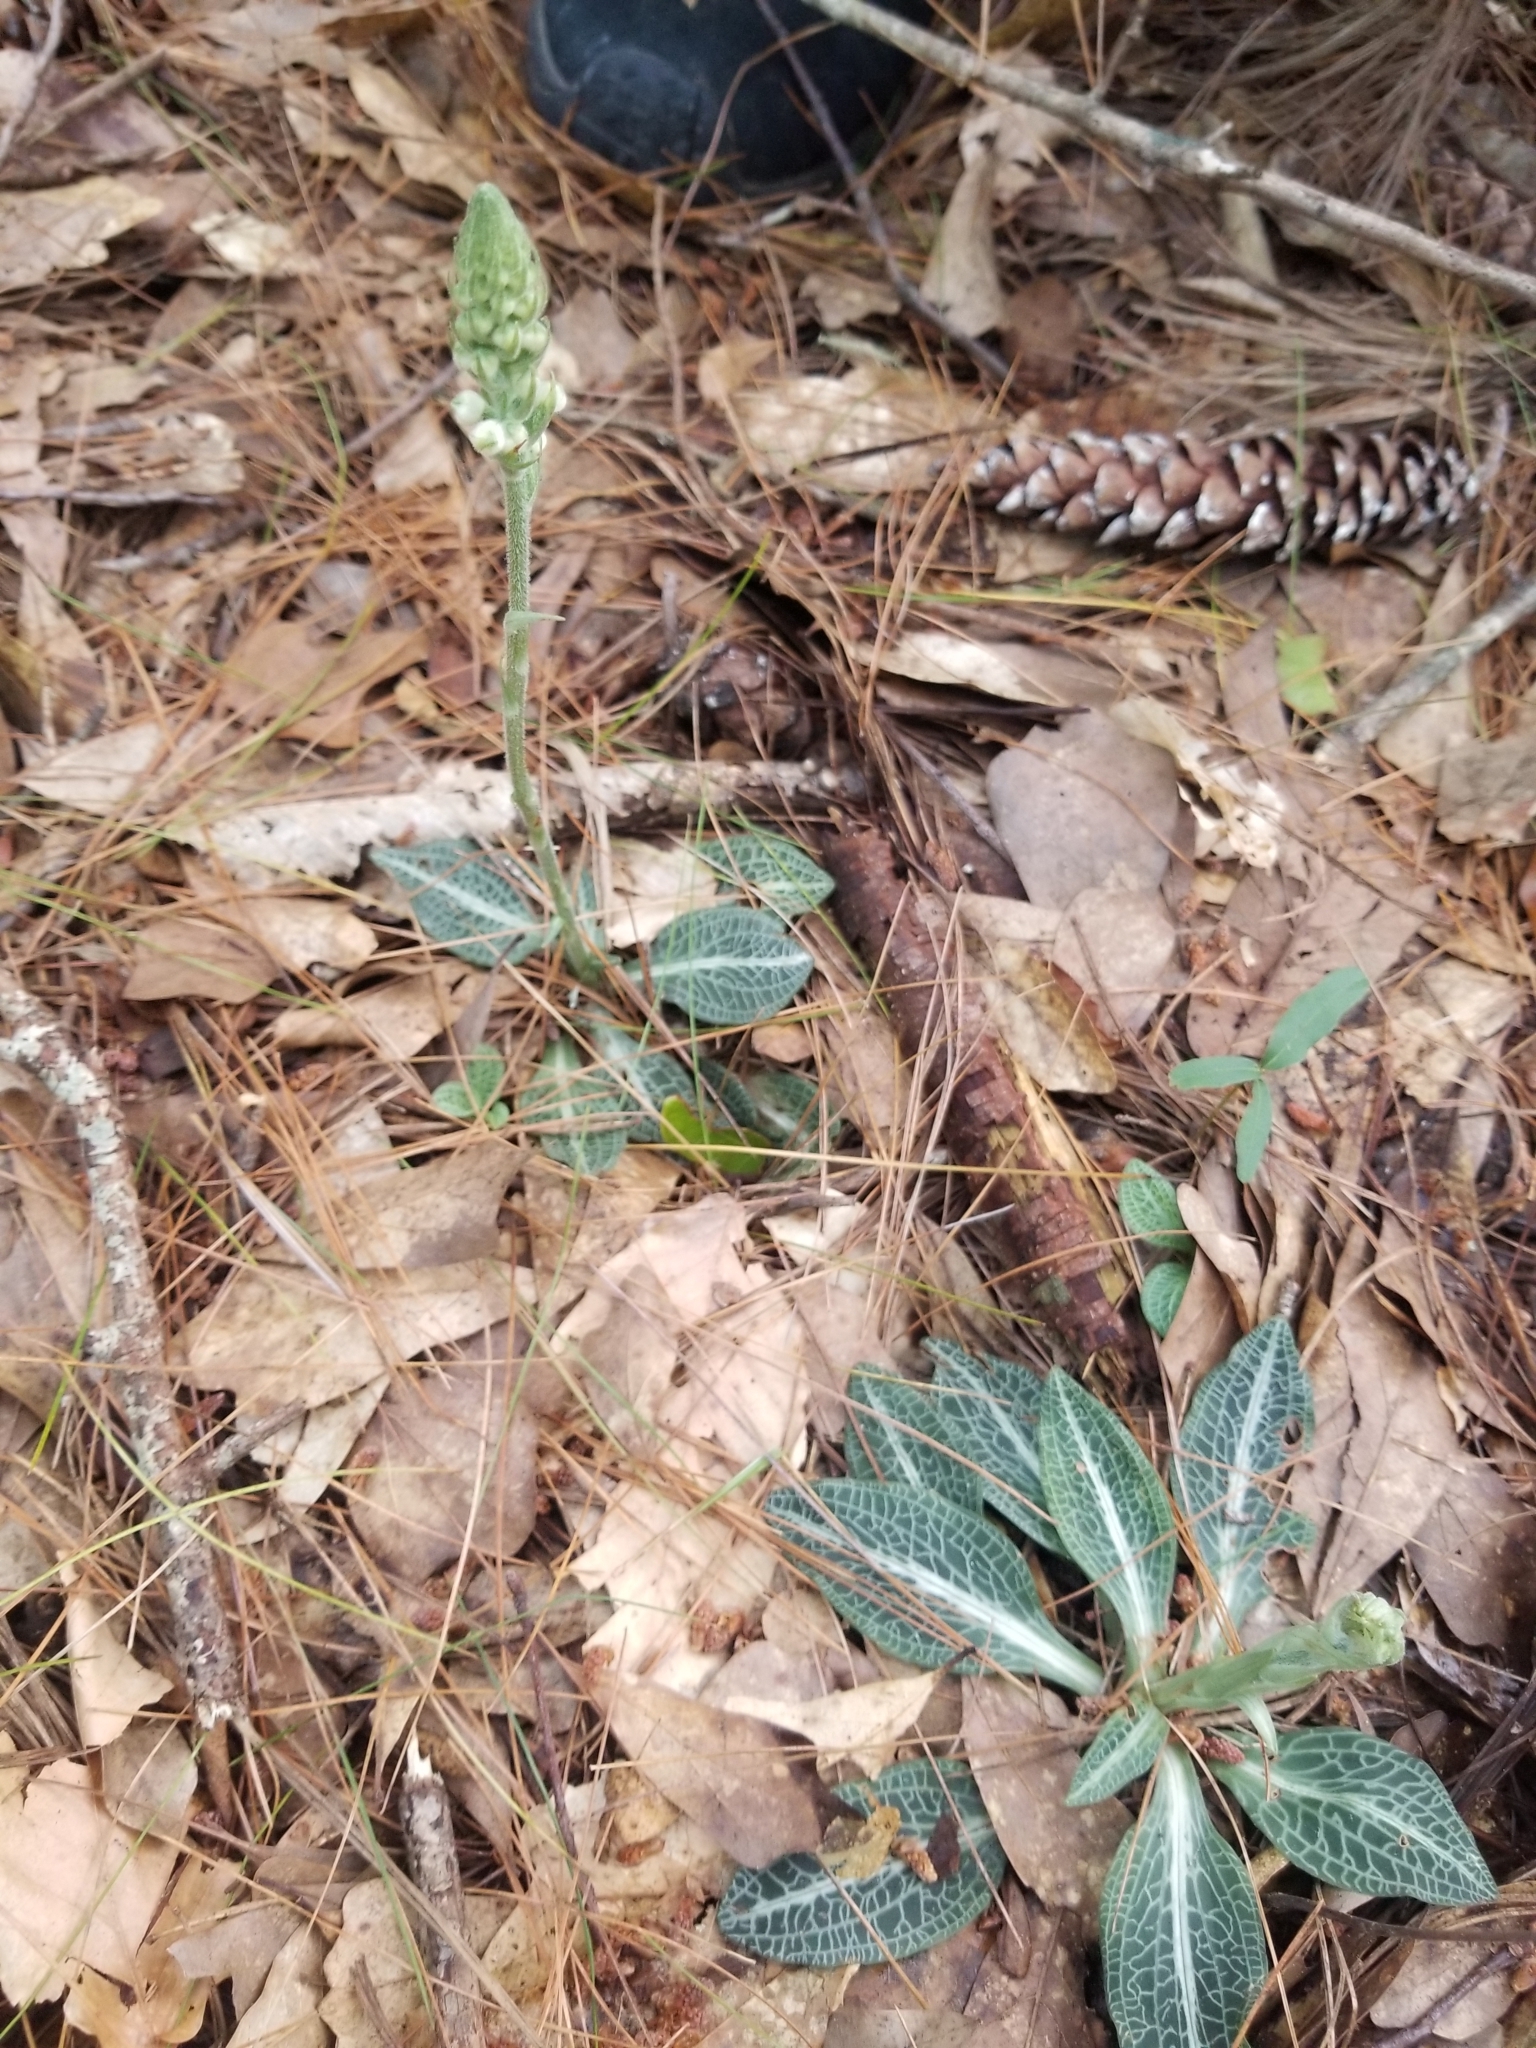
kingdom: Plantae
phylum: Tracheophyta
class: Liliopsida
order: Asparagales
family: Orchidaceae
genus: Goodyera
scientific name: Goodyera pubescens
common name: Downy rattlesnake-plantain
